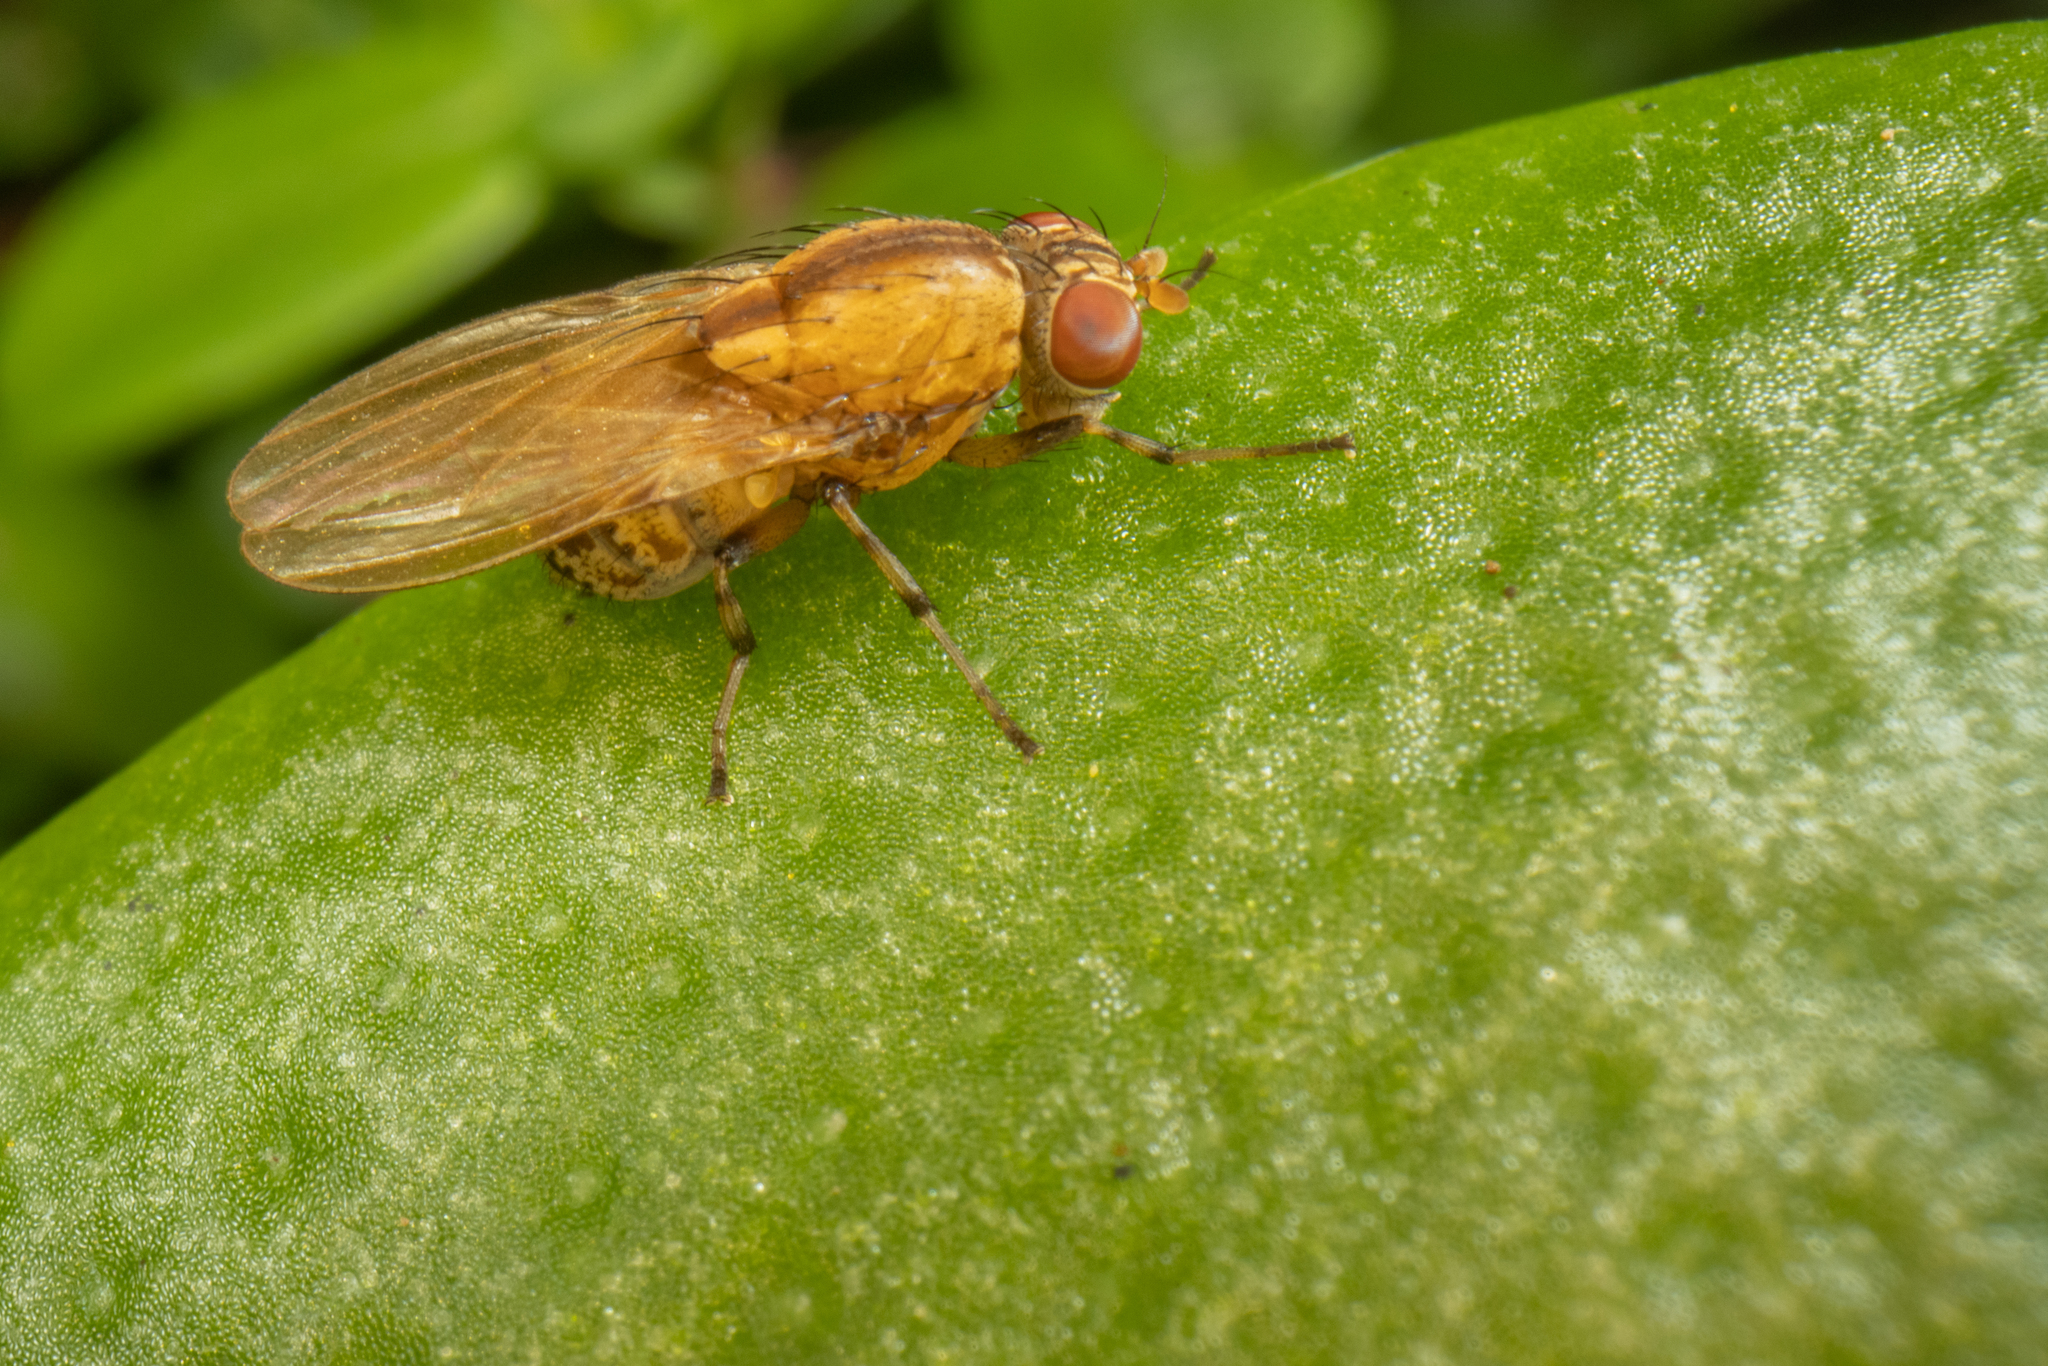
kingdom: Animalia
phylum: Arthropoda
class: Insecta
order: Diptera
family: Lauxaniidae
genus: Sapromyza
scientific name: Sapromyza neozelandica
